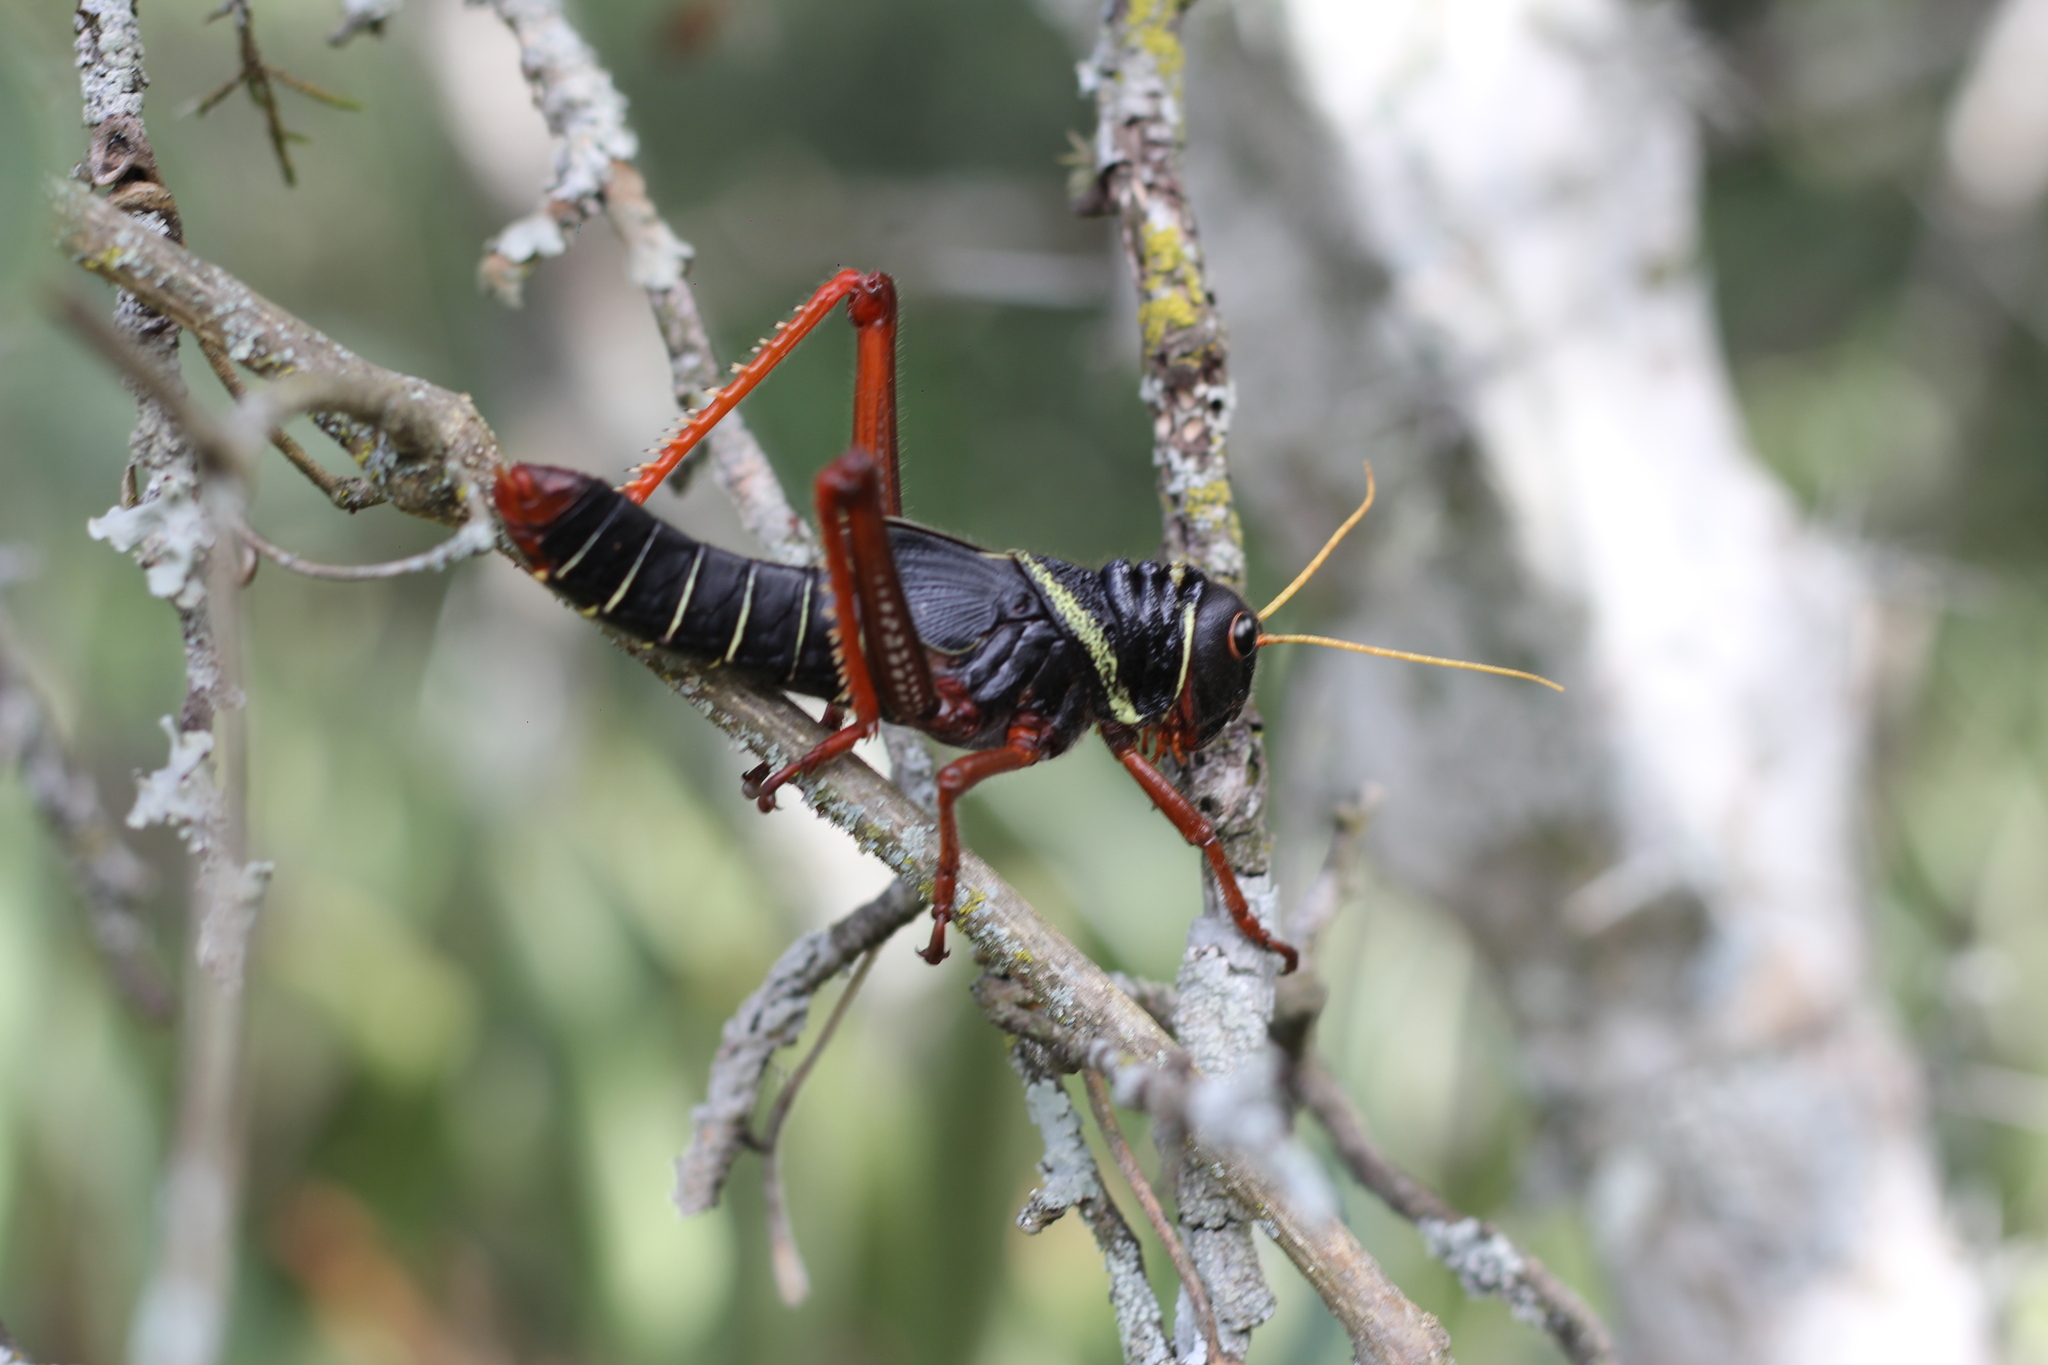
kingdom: Animalia
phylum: Arthropoda
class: Insecta
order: Orthoptera
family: Romaleidae
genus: Tropidacris
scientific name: Tropidacris collaris
